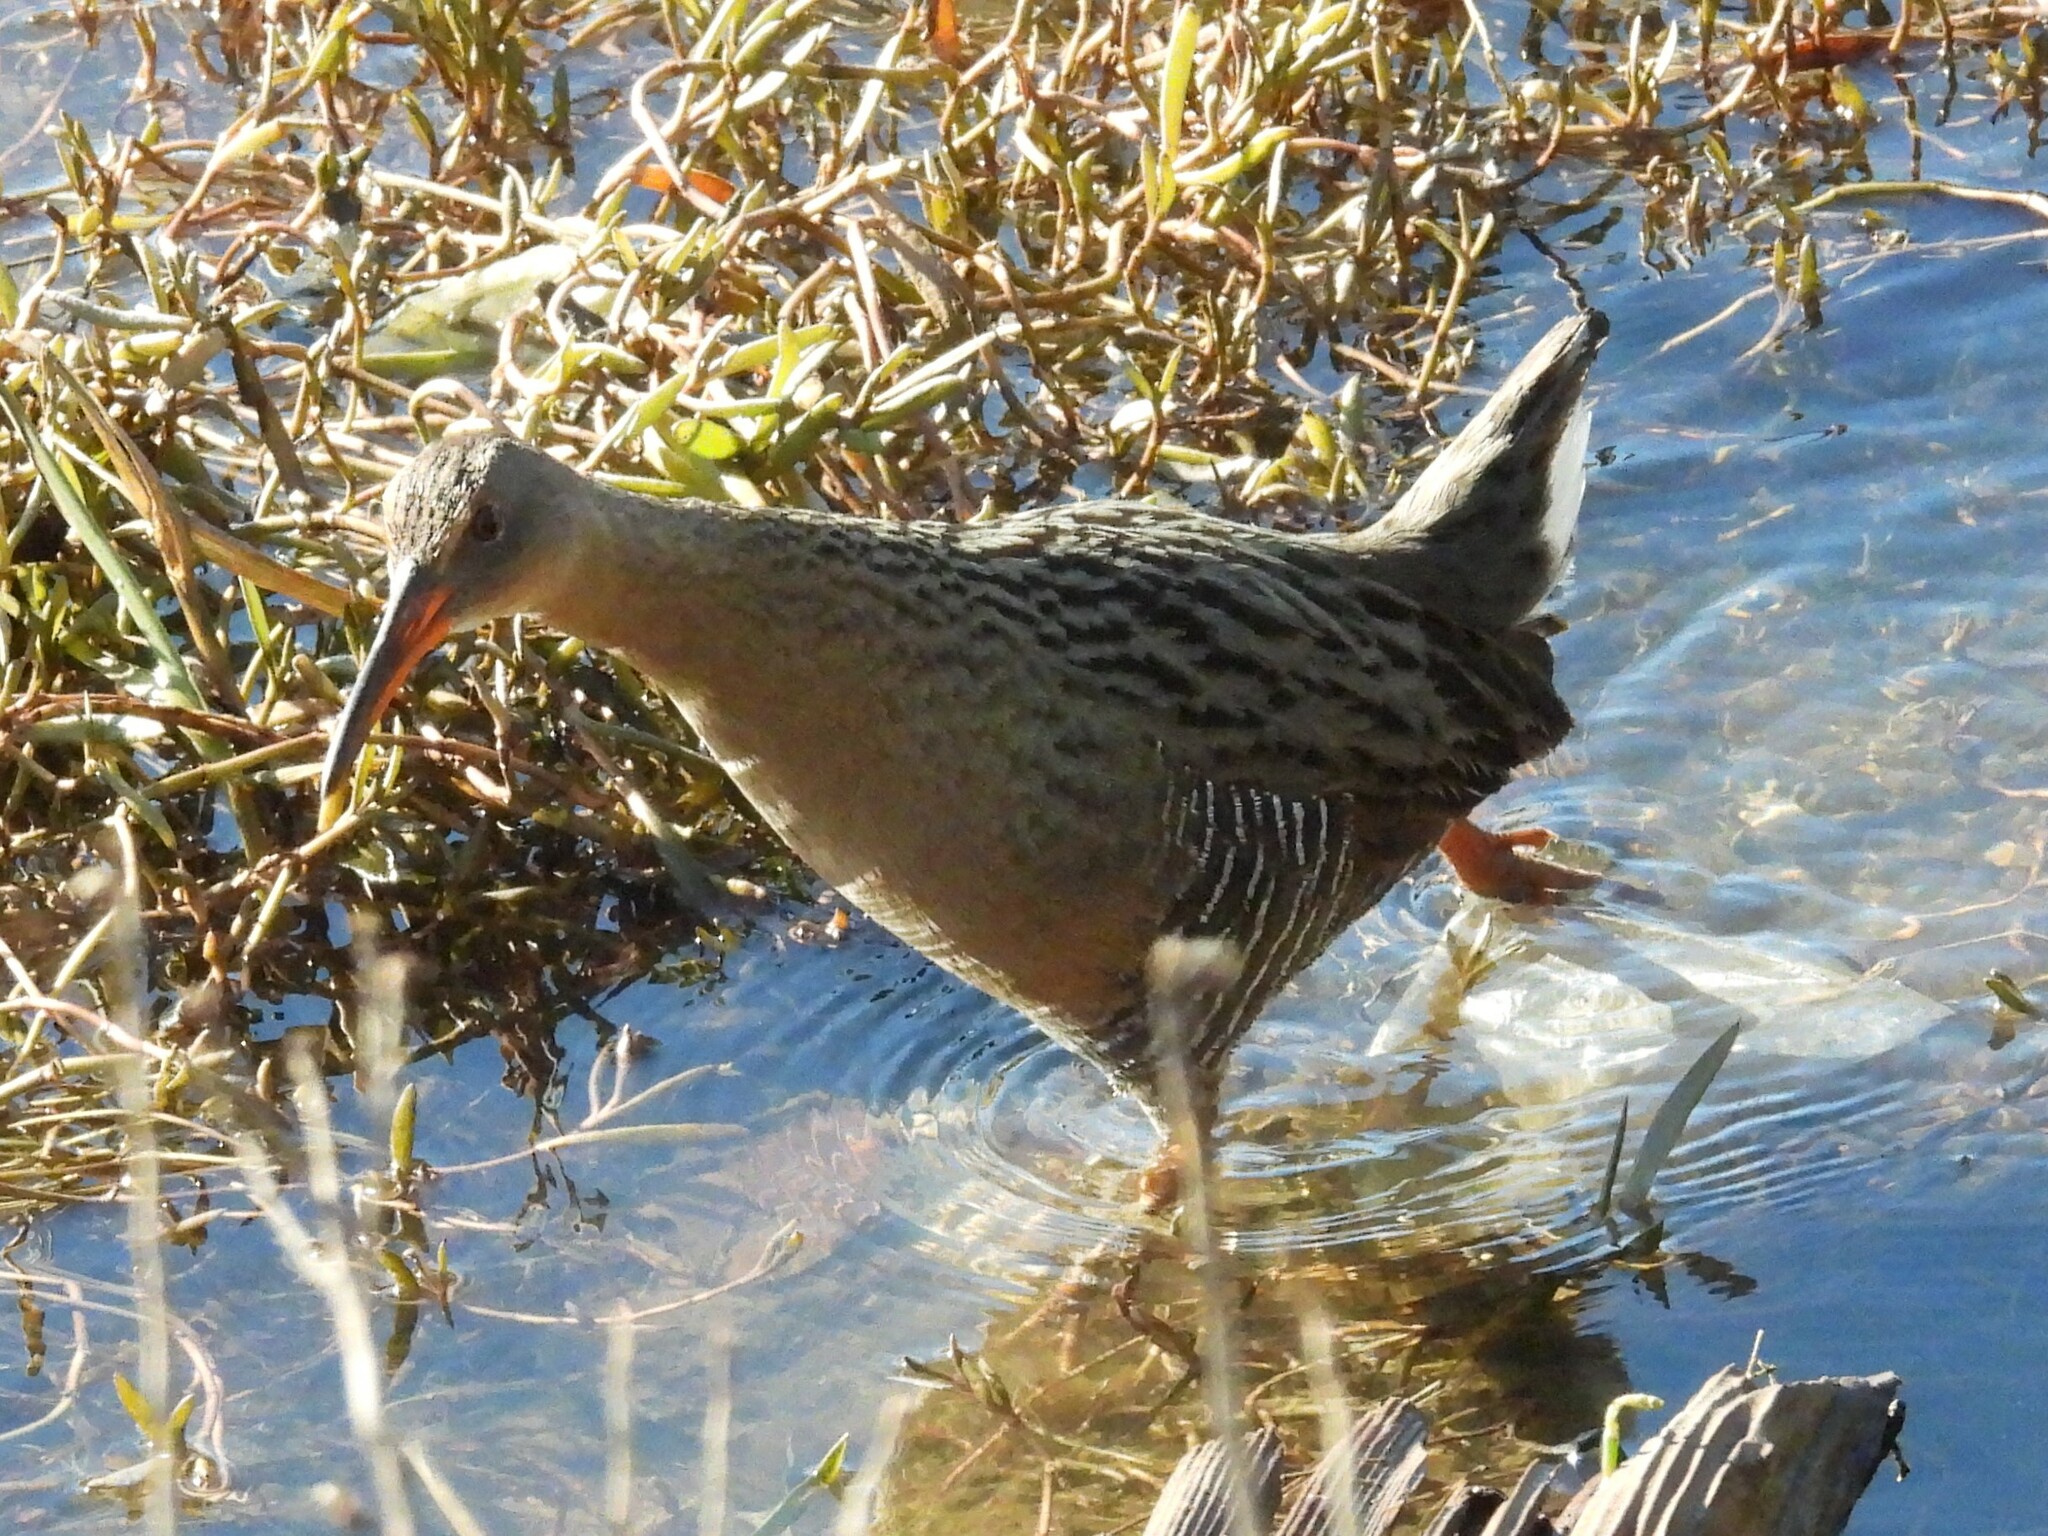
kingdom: Animalia
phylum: Chordata
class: Aves
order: Gruiformes
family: Rallidae
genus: Rallus
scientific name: Rallus obsoletus
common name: Ridgway's rail
